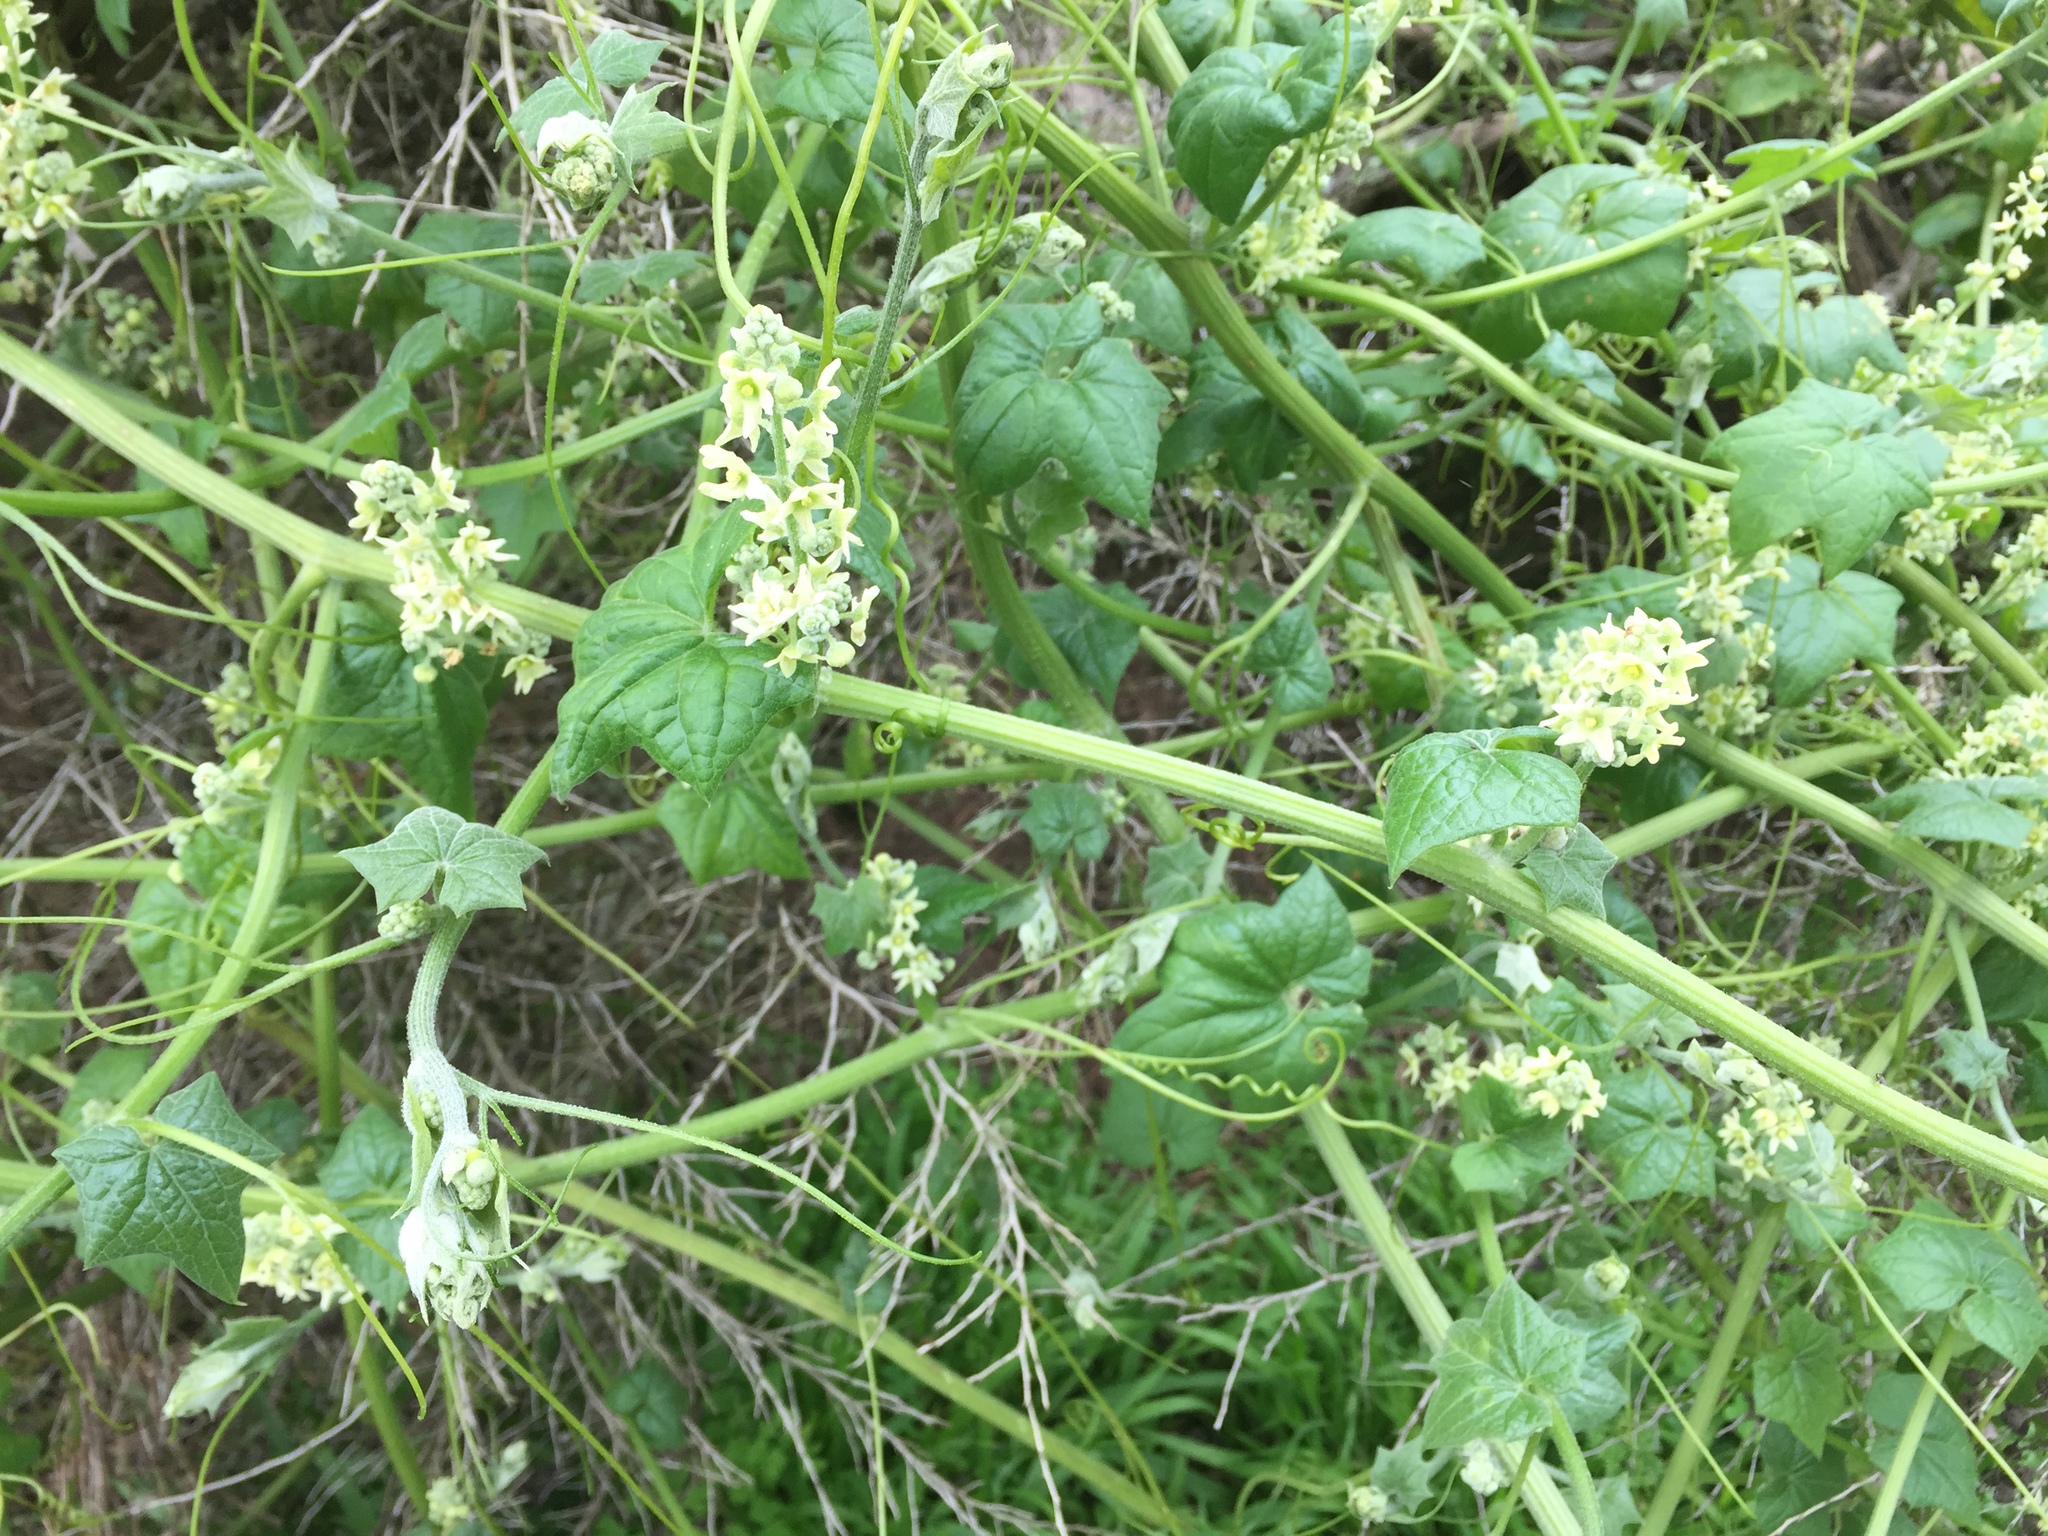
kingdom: Plantae
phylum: Tracheophyta
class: Magnoliopsida
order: Cucurbitales
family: Cucurbitaceae
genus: Marah
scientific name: Marah fabacea
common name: California manroot
